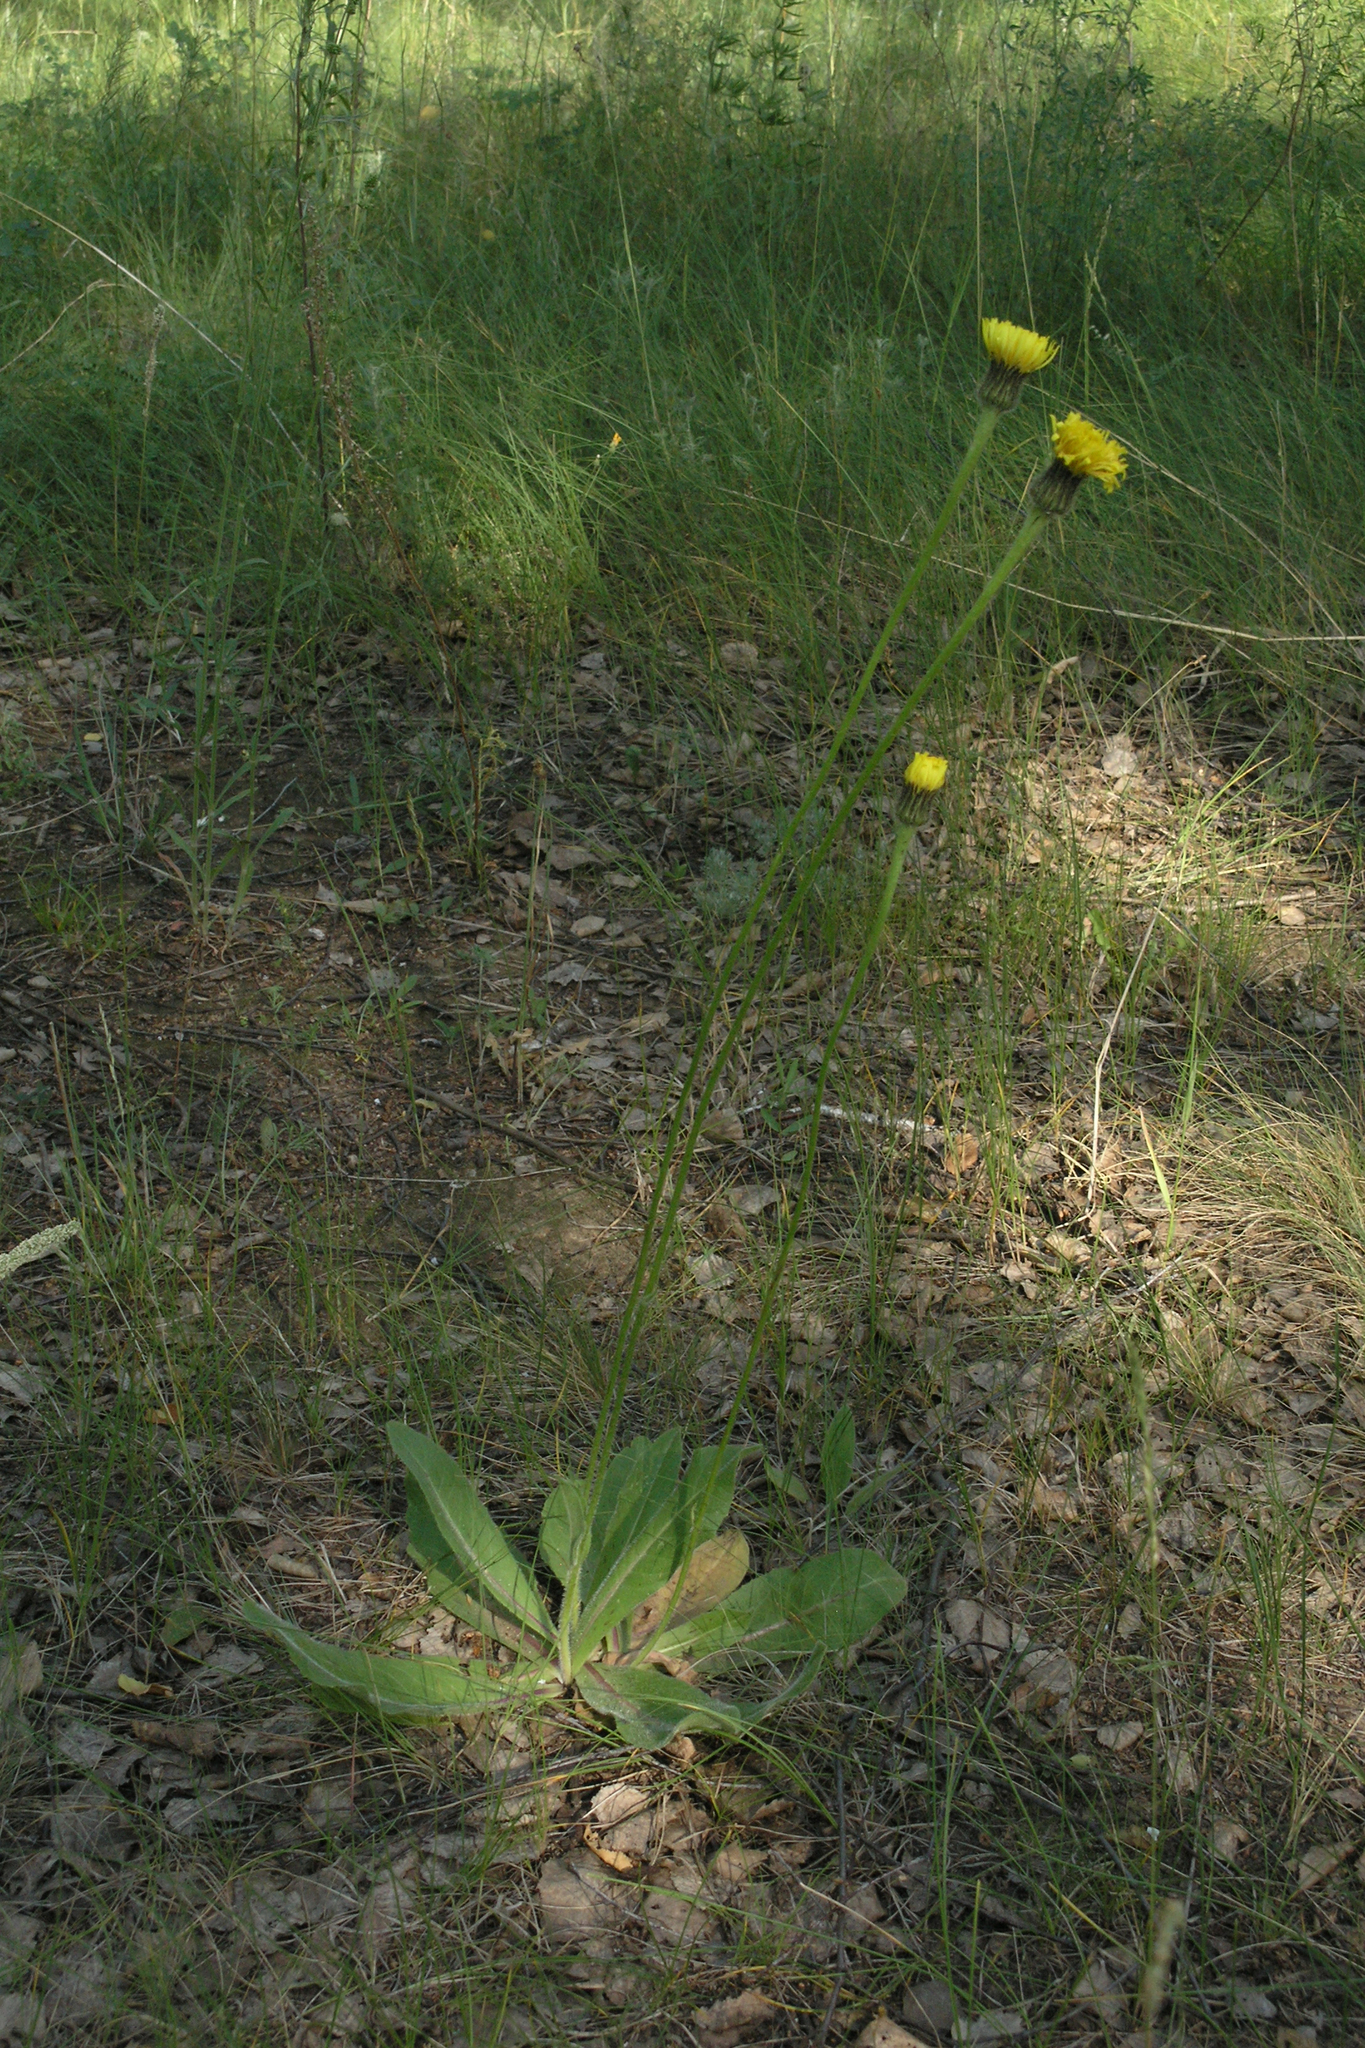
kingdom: Plantae
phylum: Tracheophyta
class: Magnoliopsida
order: Asterales
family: Asteraceae
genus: Trommsdorffia
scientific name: Trommsdorffia maculata
